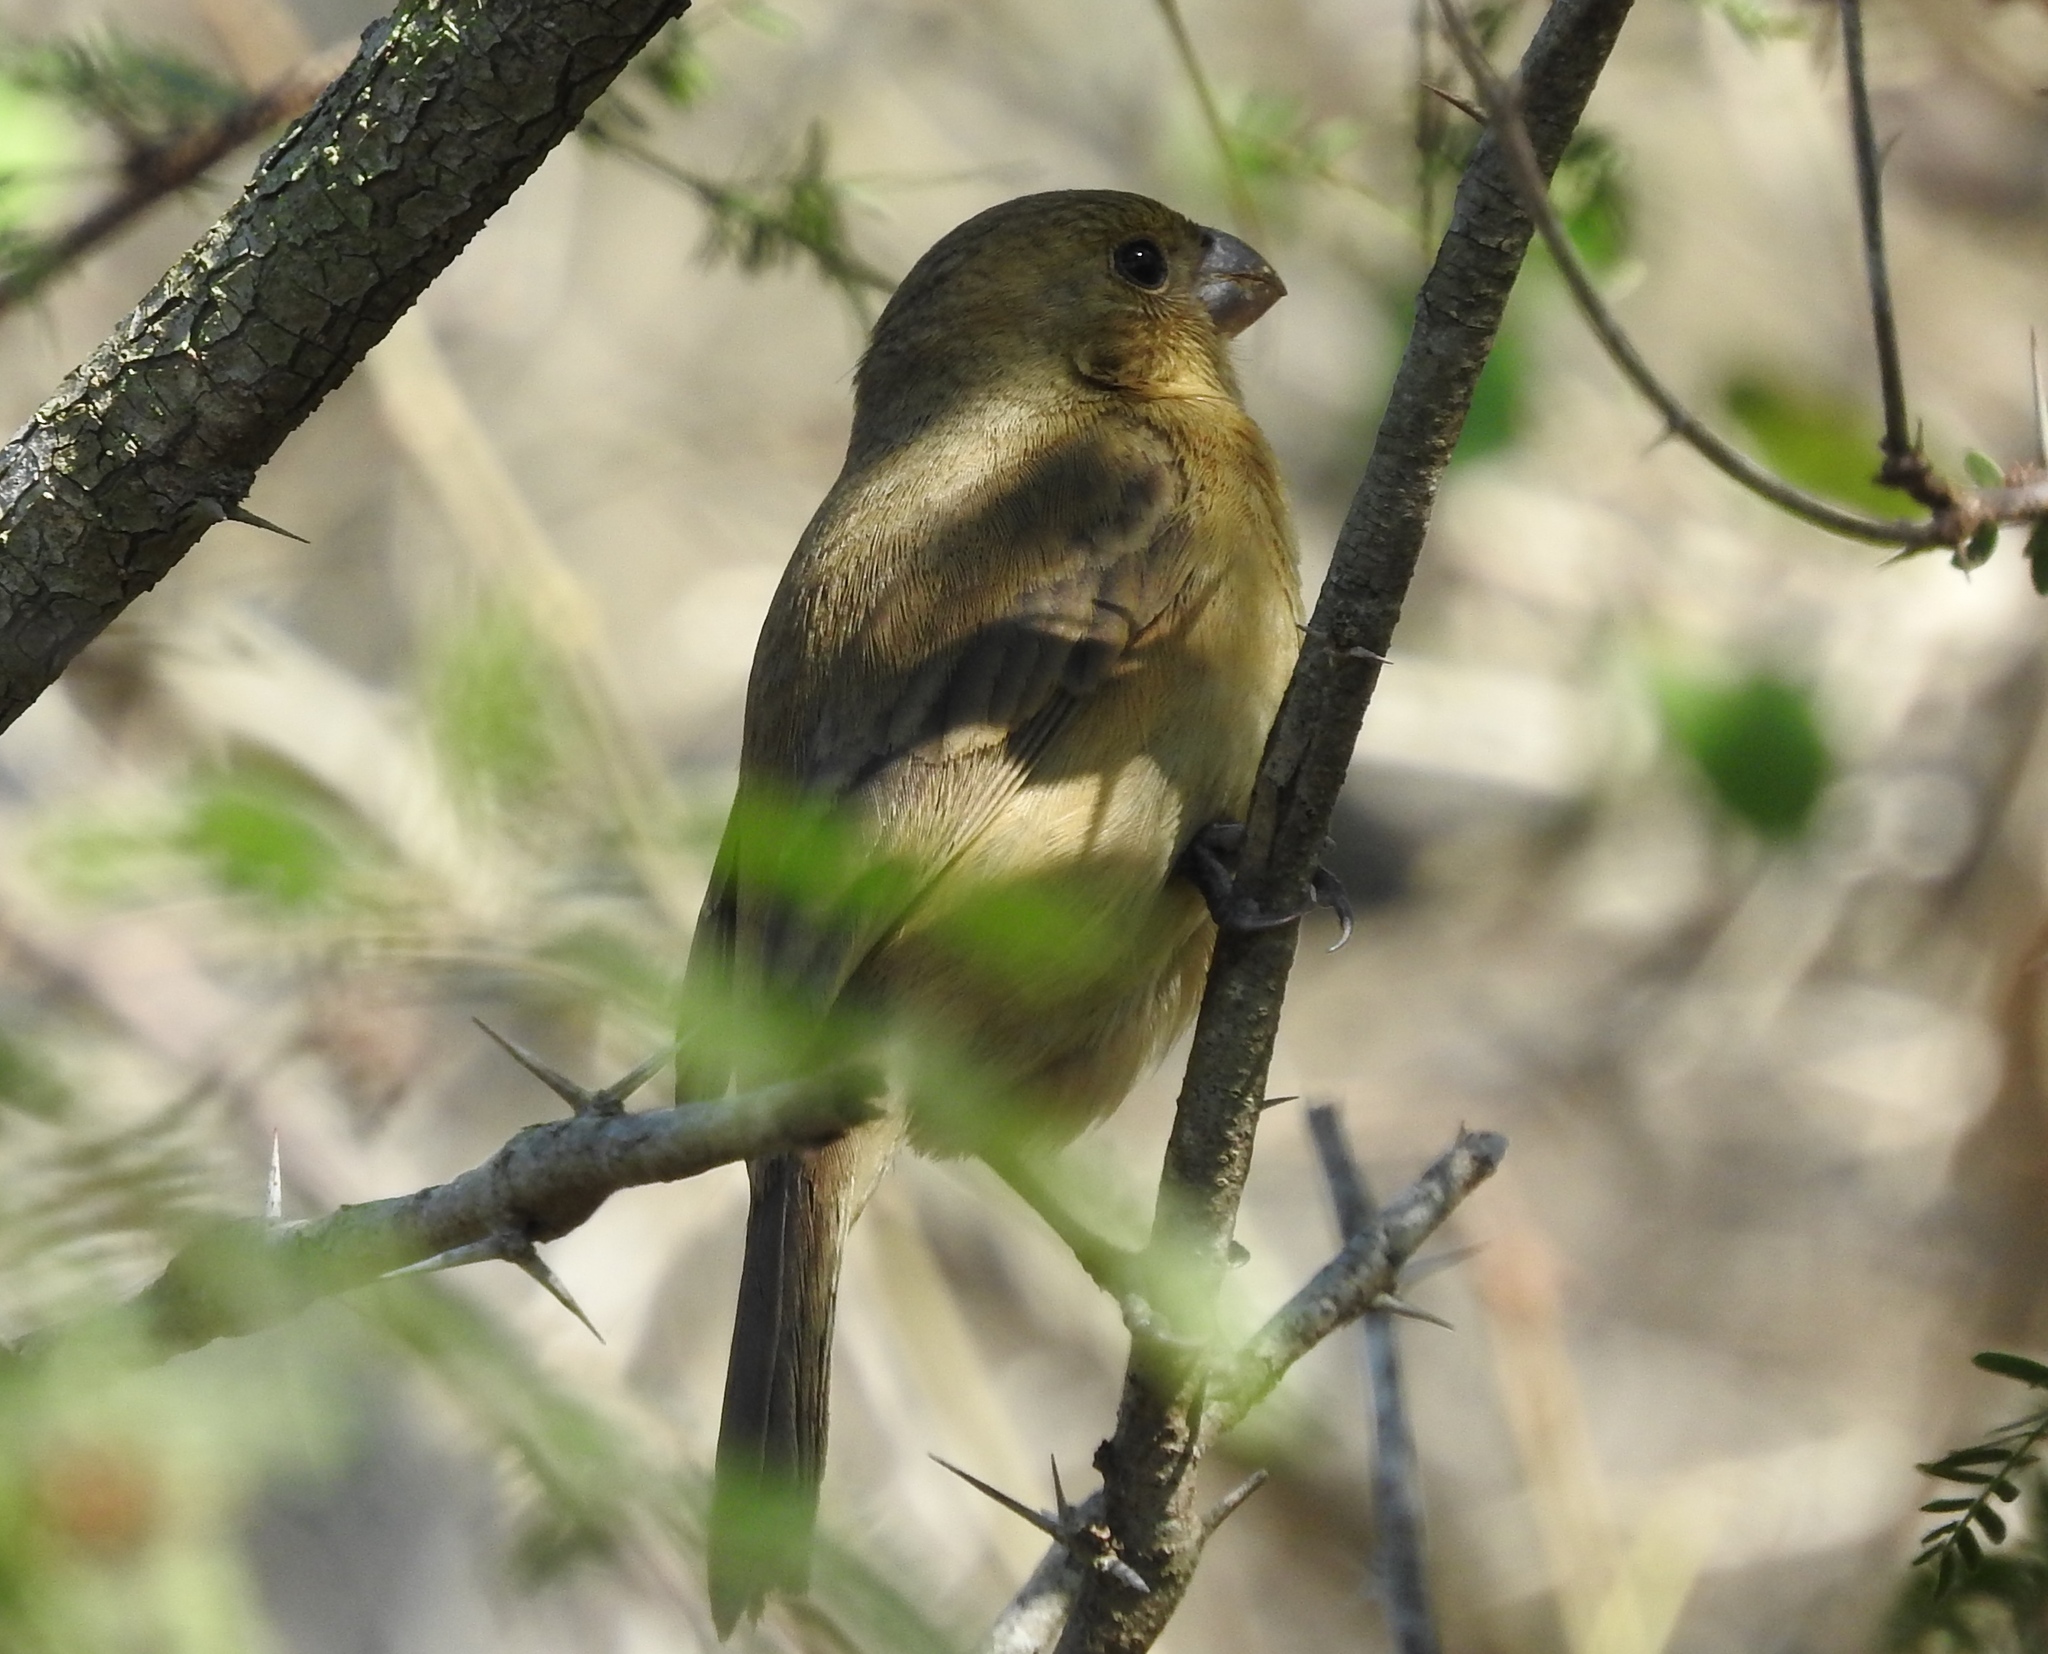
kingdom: Animalia
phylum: Chordata
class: Aves
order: Passeriformes
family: Thraupidae
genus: Sporophila
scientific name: Sporophila torqueola
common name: White-collared seedeater
